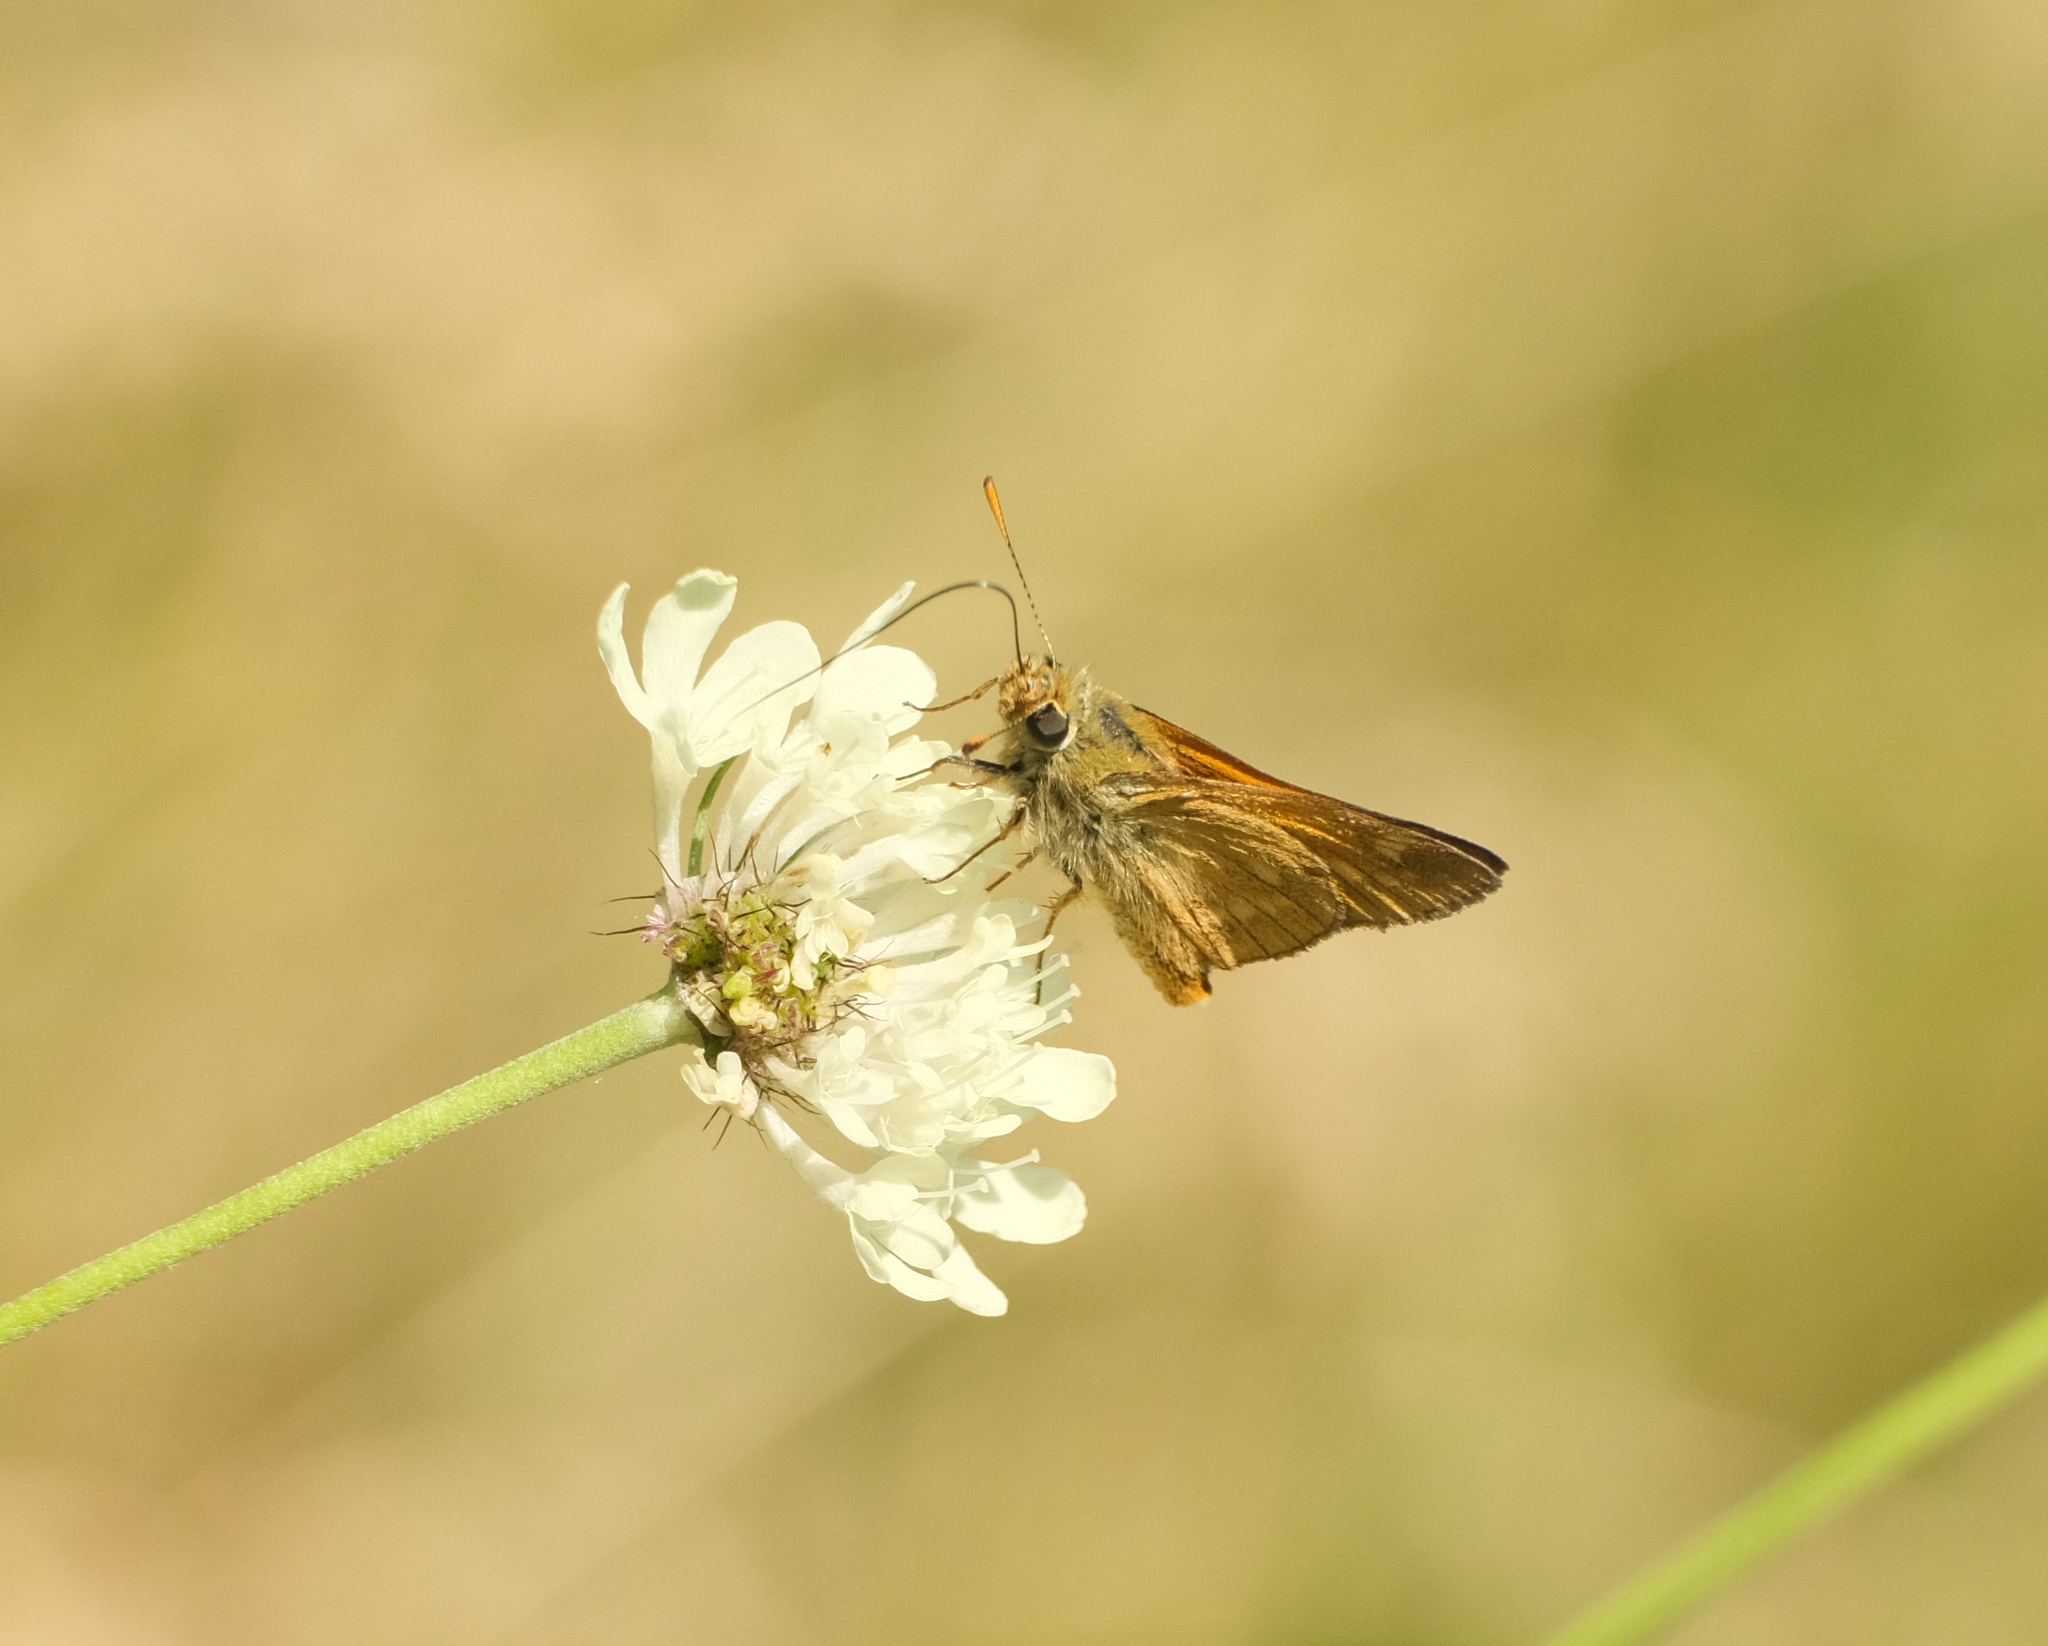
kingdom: Animalia
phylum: Arthropoda
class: Insecta
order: Lepidoptera
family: Hesperiidae
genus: Ochlodes
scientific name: Ochlodes venata
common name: Large skipper
